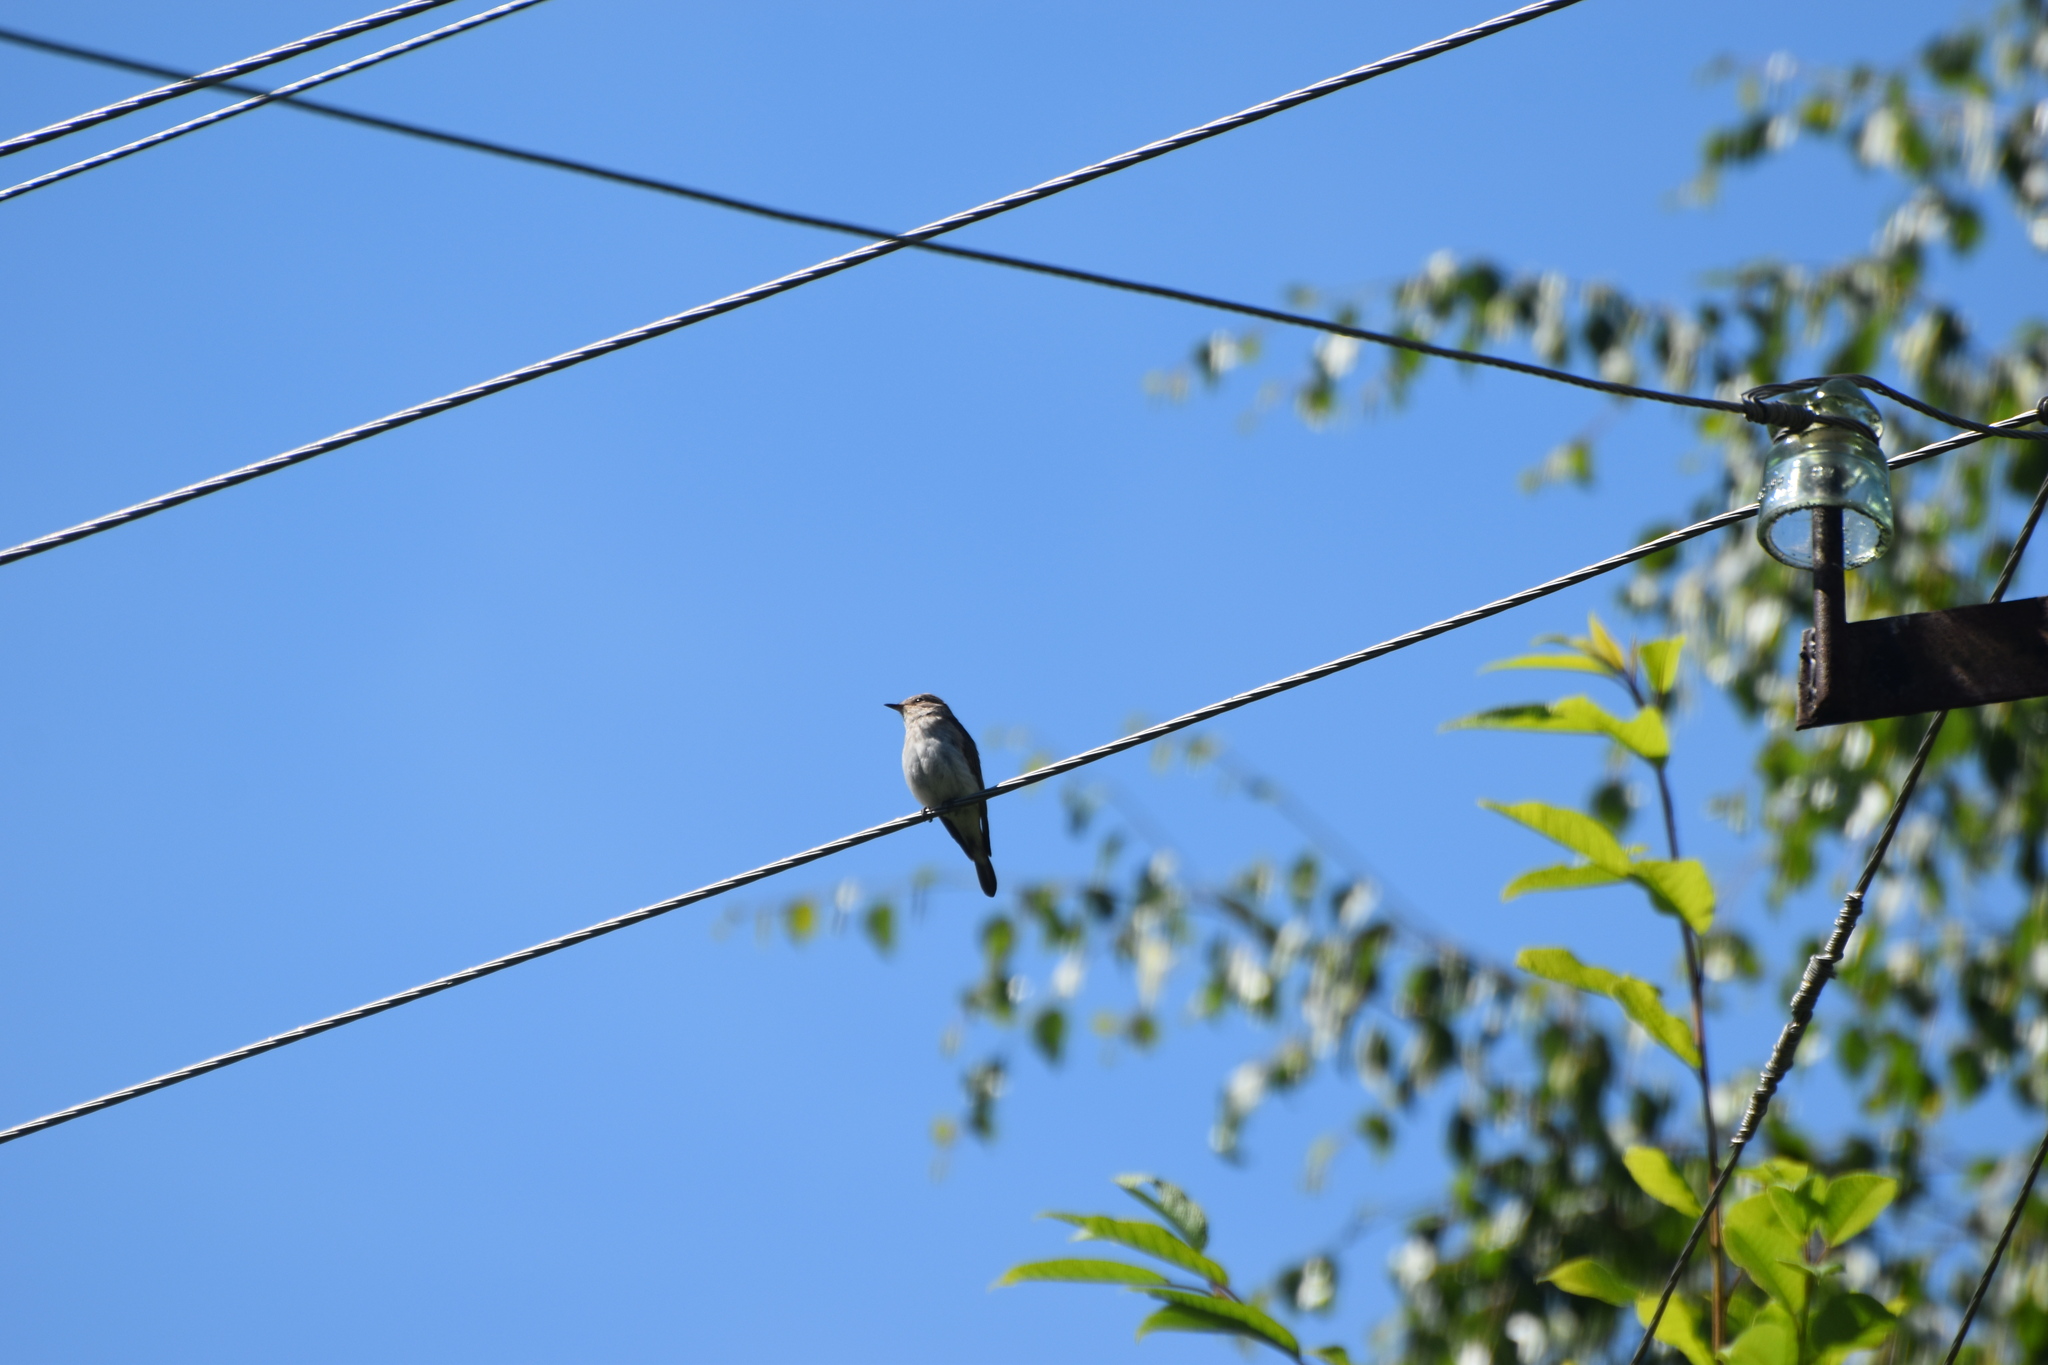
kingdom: Animalia
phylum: Chordata
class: Aves
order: Passeriformes
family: Muscicapidae
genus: Muscicapa
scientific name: Muscicapa striata
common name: Spotted flycatcher
